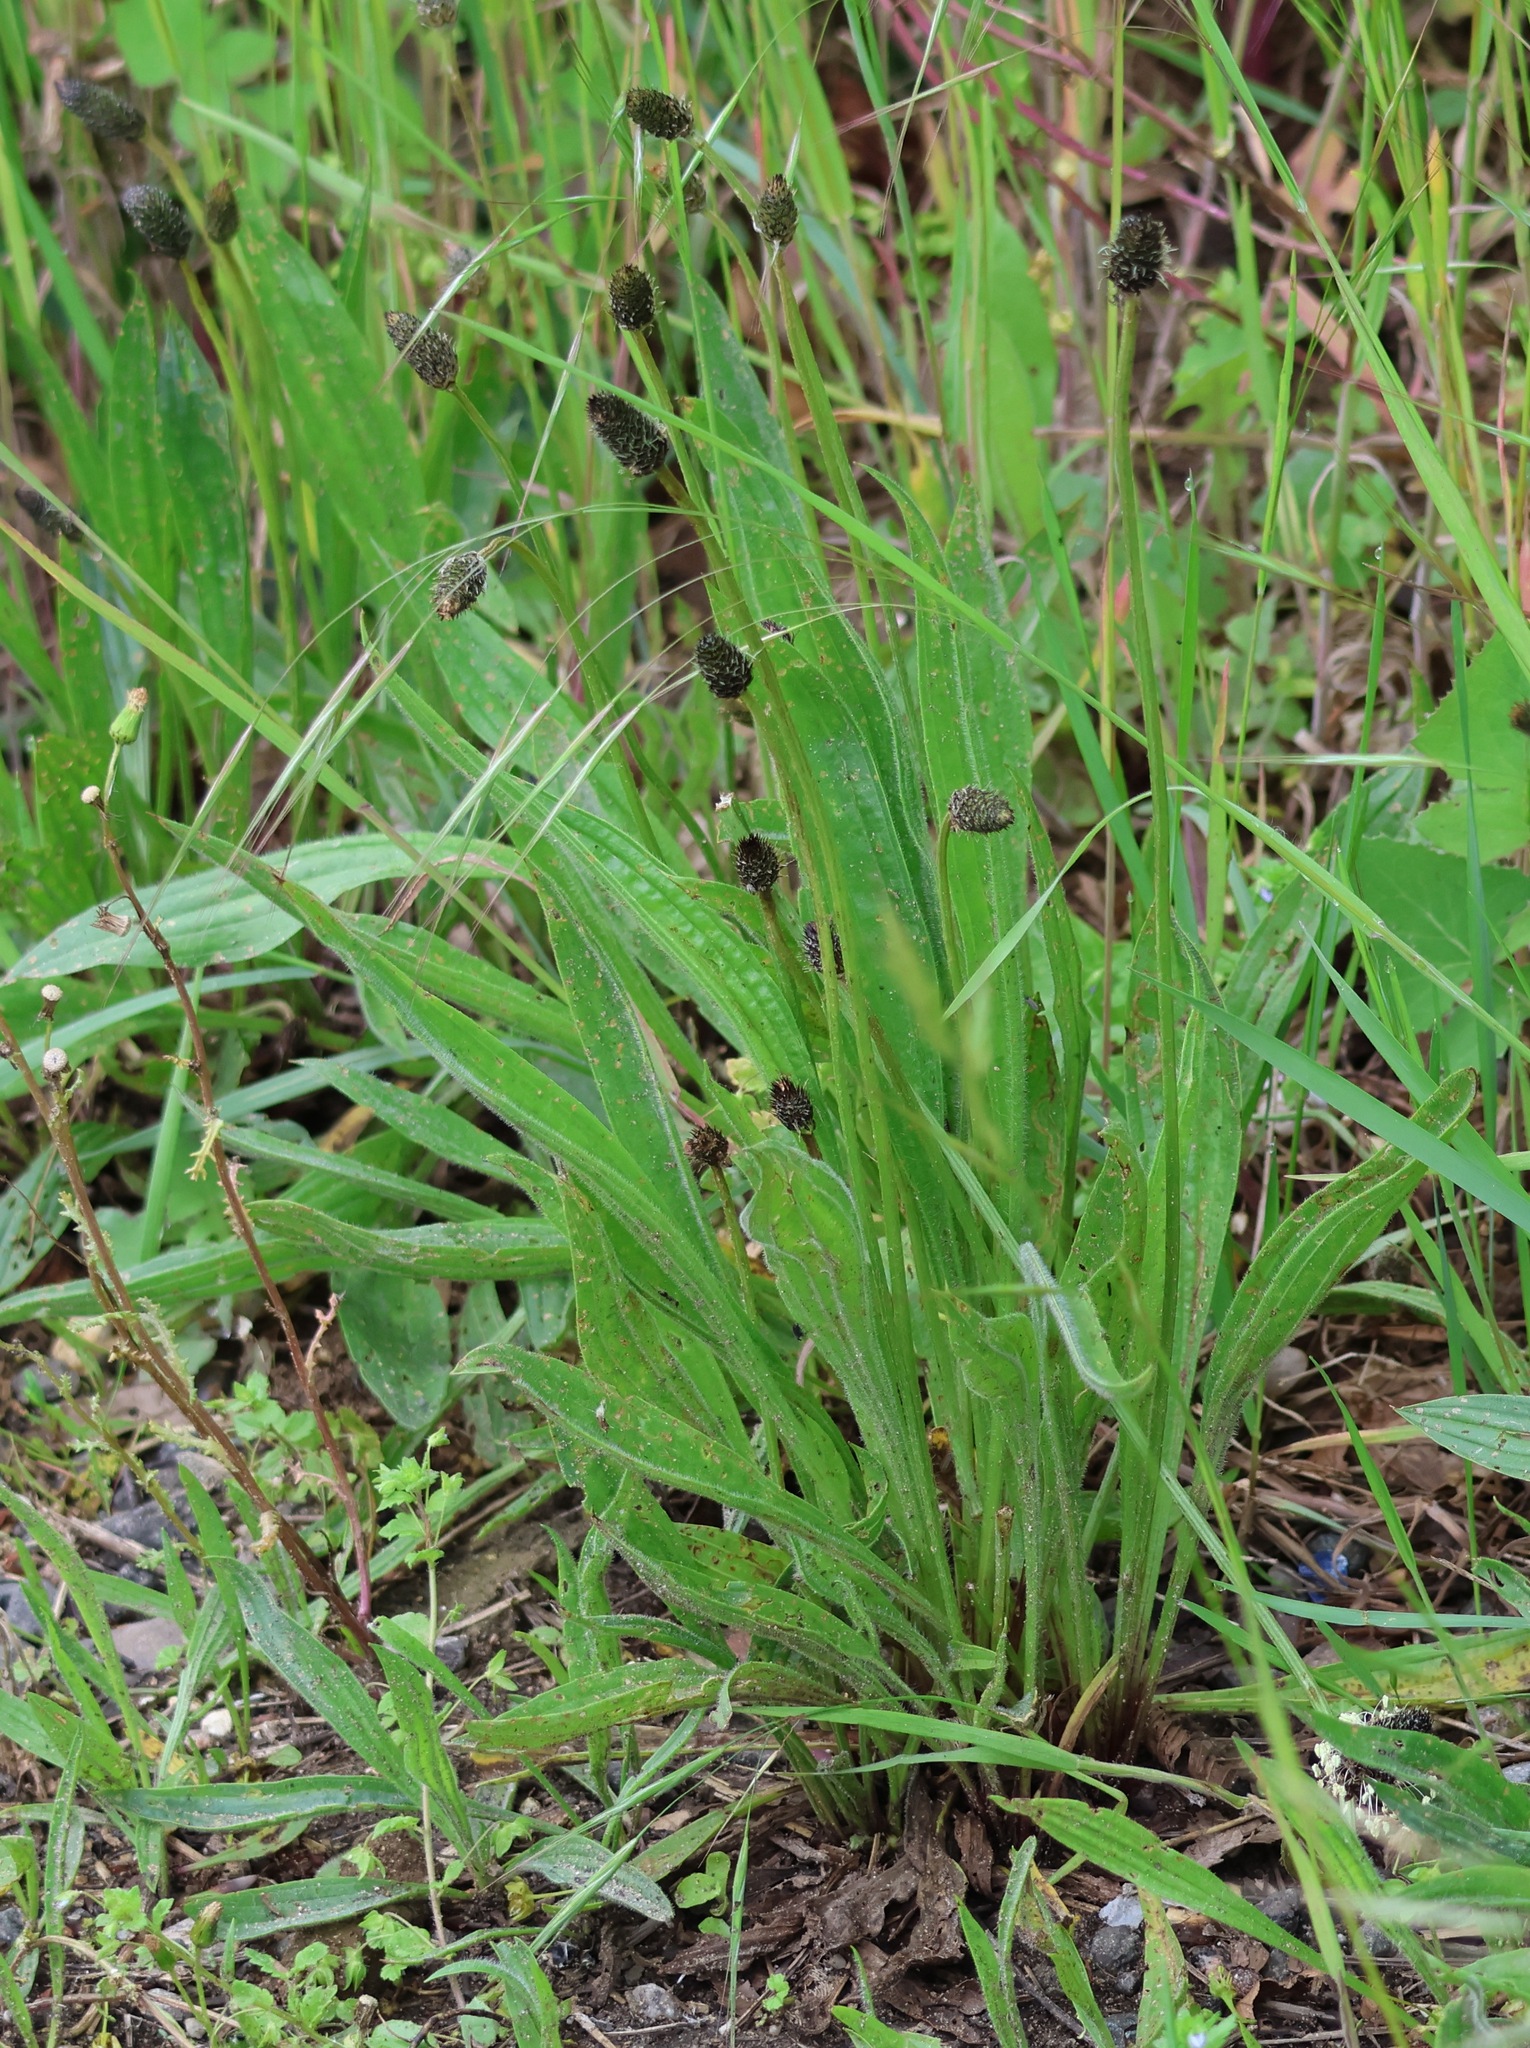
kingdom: Plantae
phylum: Tracheophyta
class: Magnoliopsida
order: Lamiales
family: Plantaginaceae
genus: Plantago
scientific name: Plantago lanceolata
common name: Ribwort plantain
